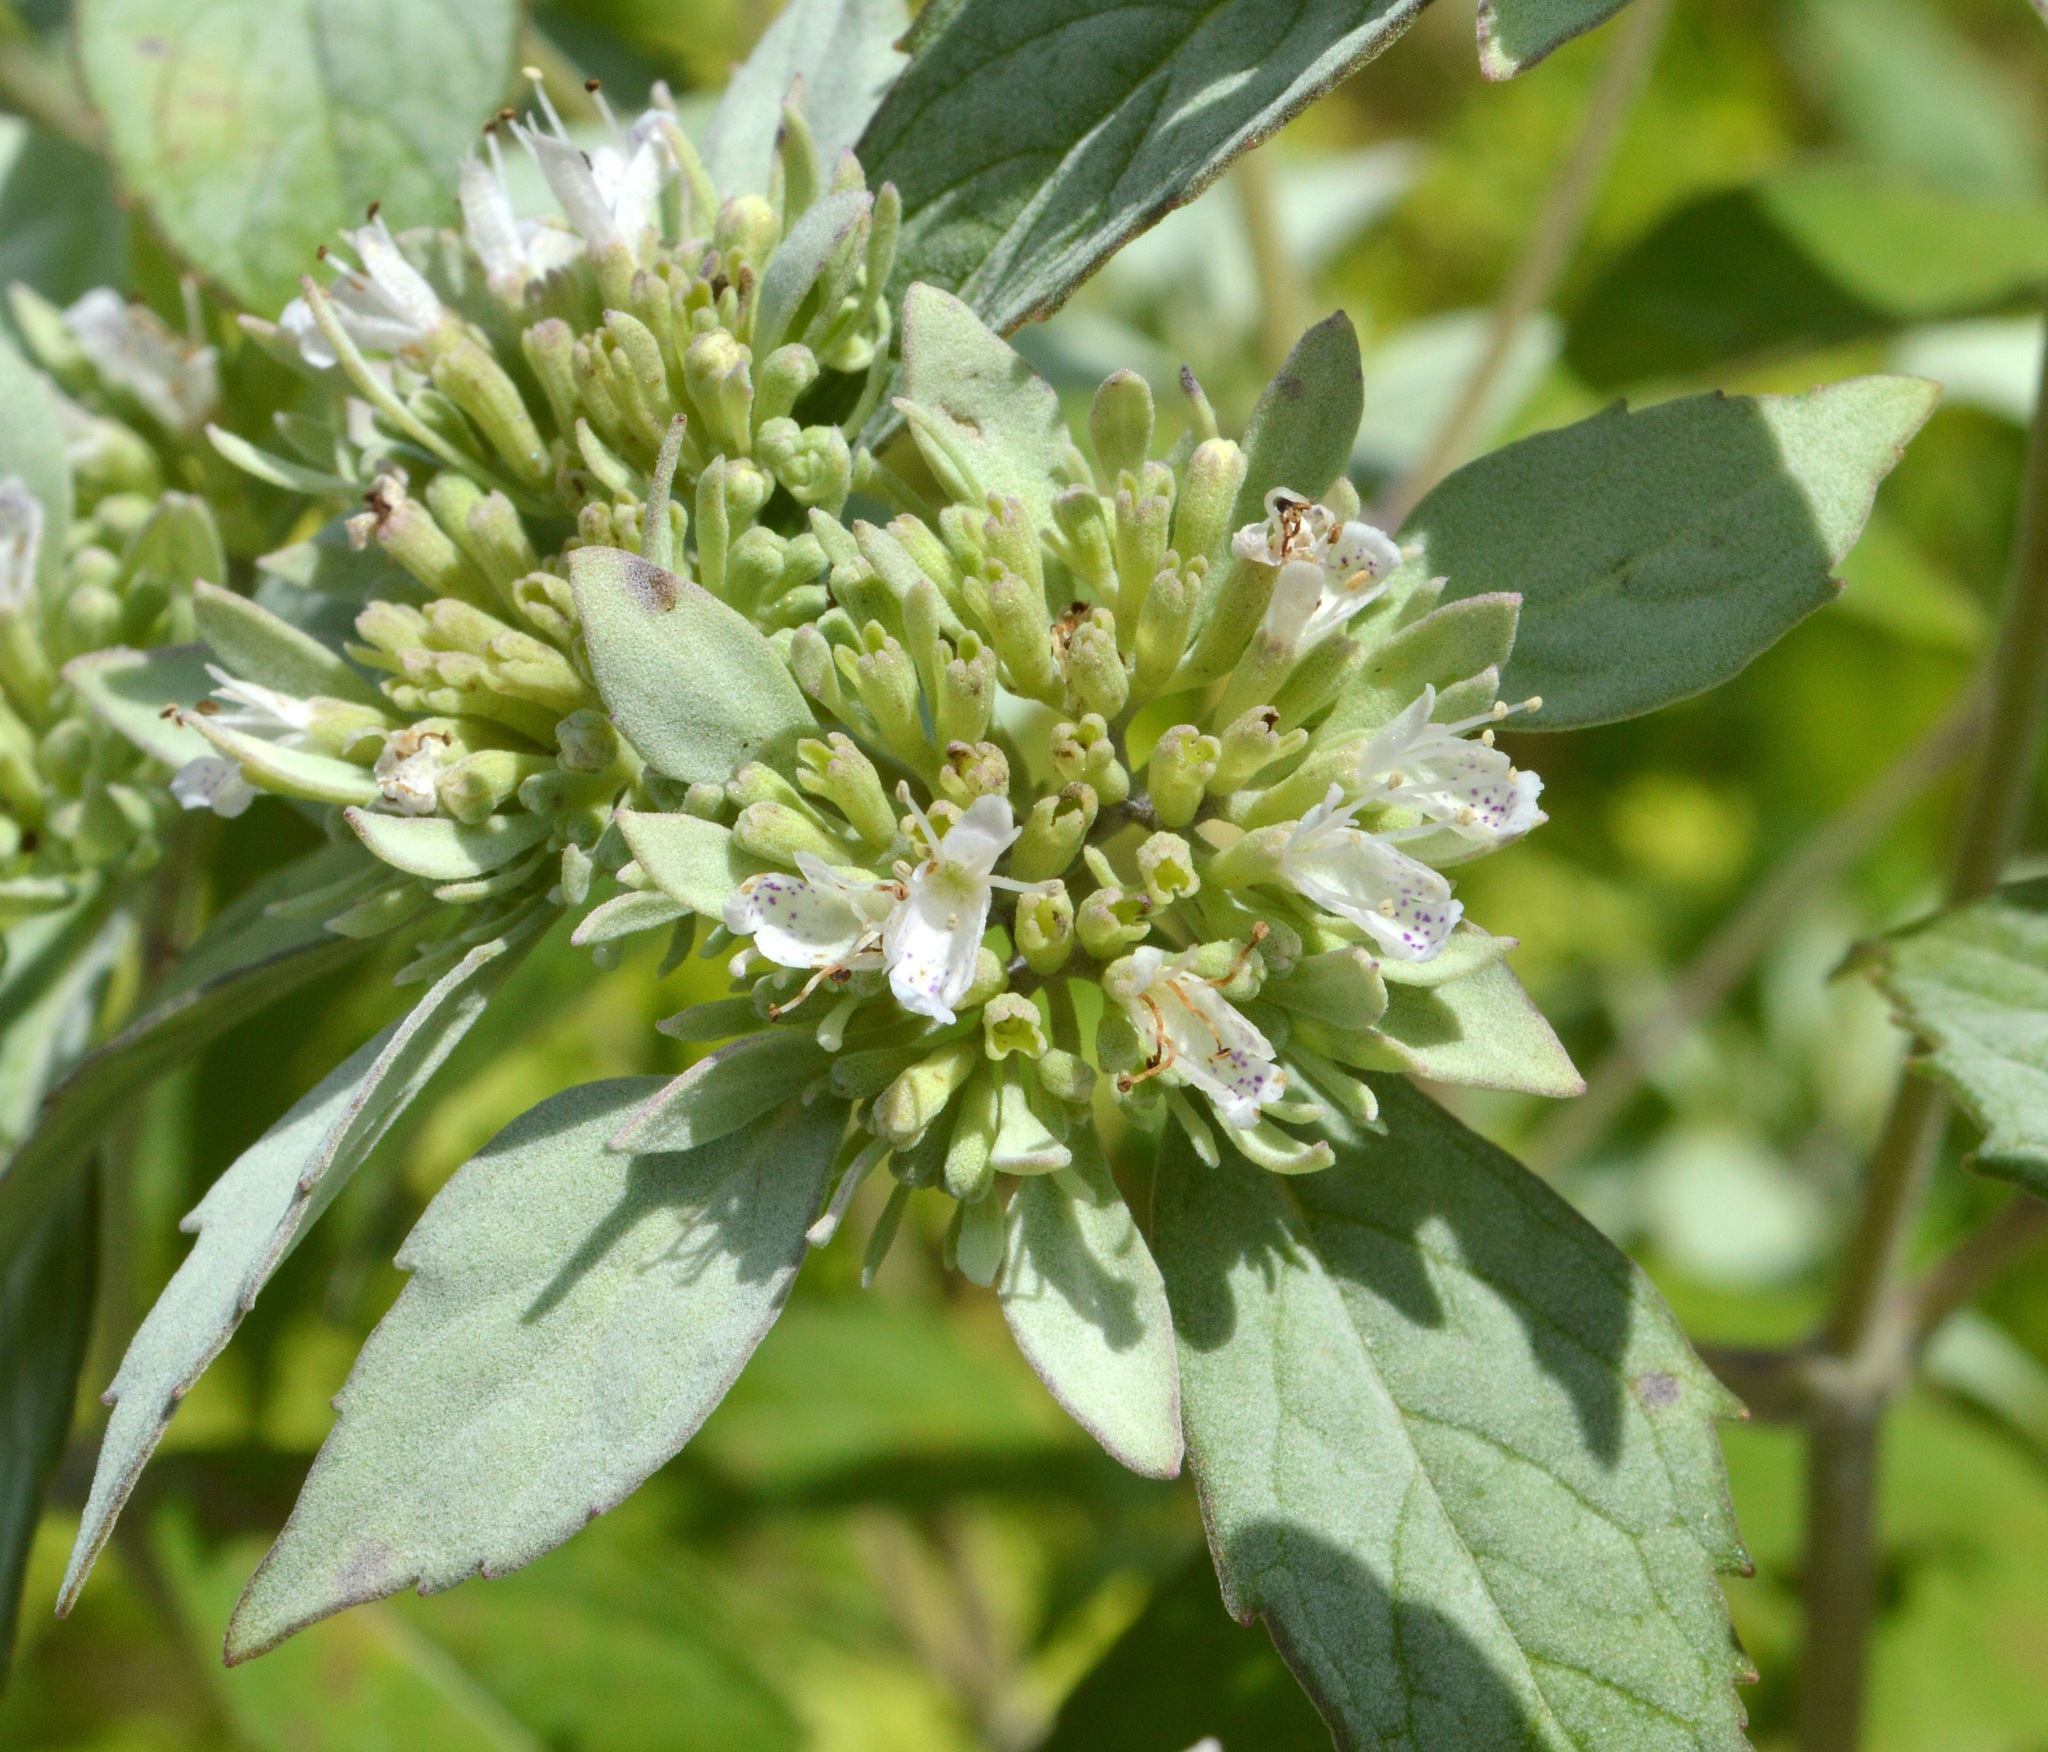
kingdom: Plantae
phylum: Tracheophyta
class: Magnoliopsida
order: Lamiales
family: Lamiaceae
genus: Pycnanthemum
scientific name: Pycnanthemum albescens
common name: White-leaf mountain-mint
